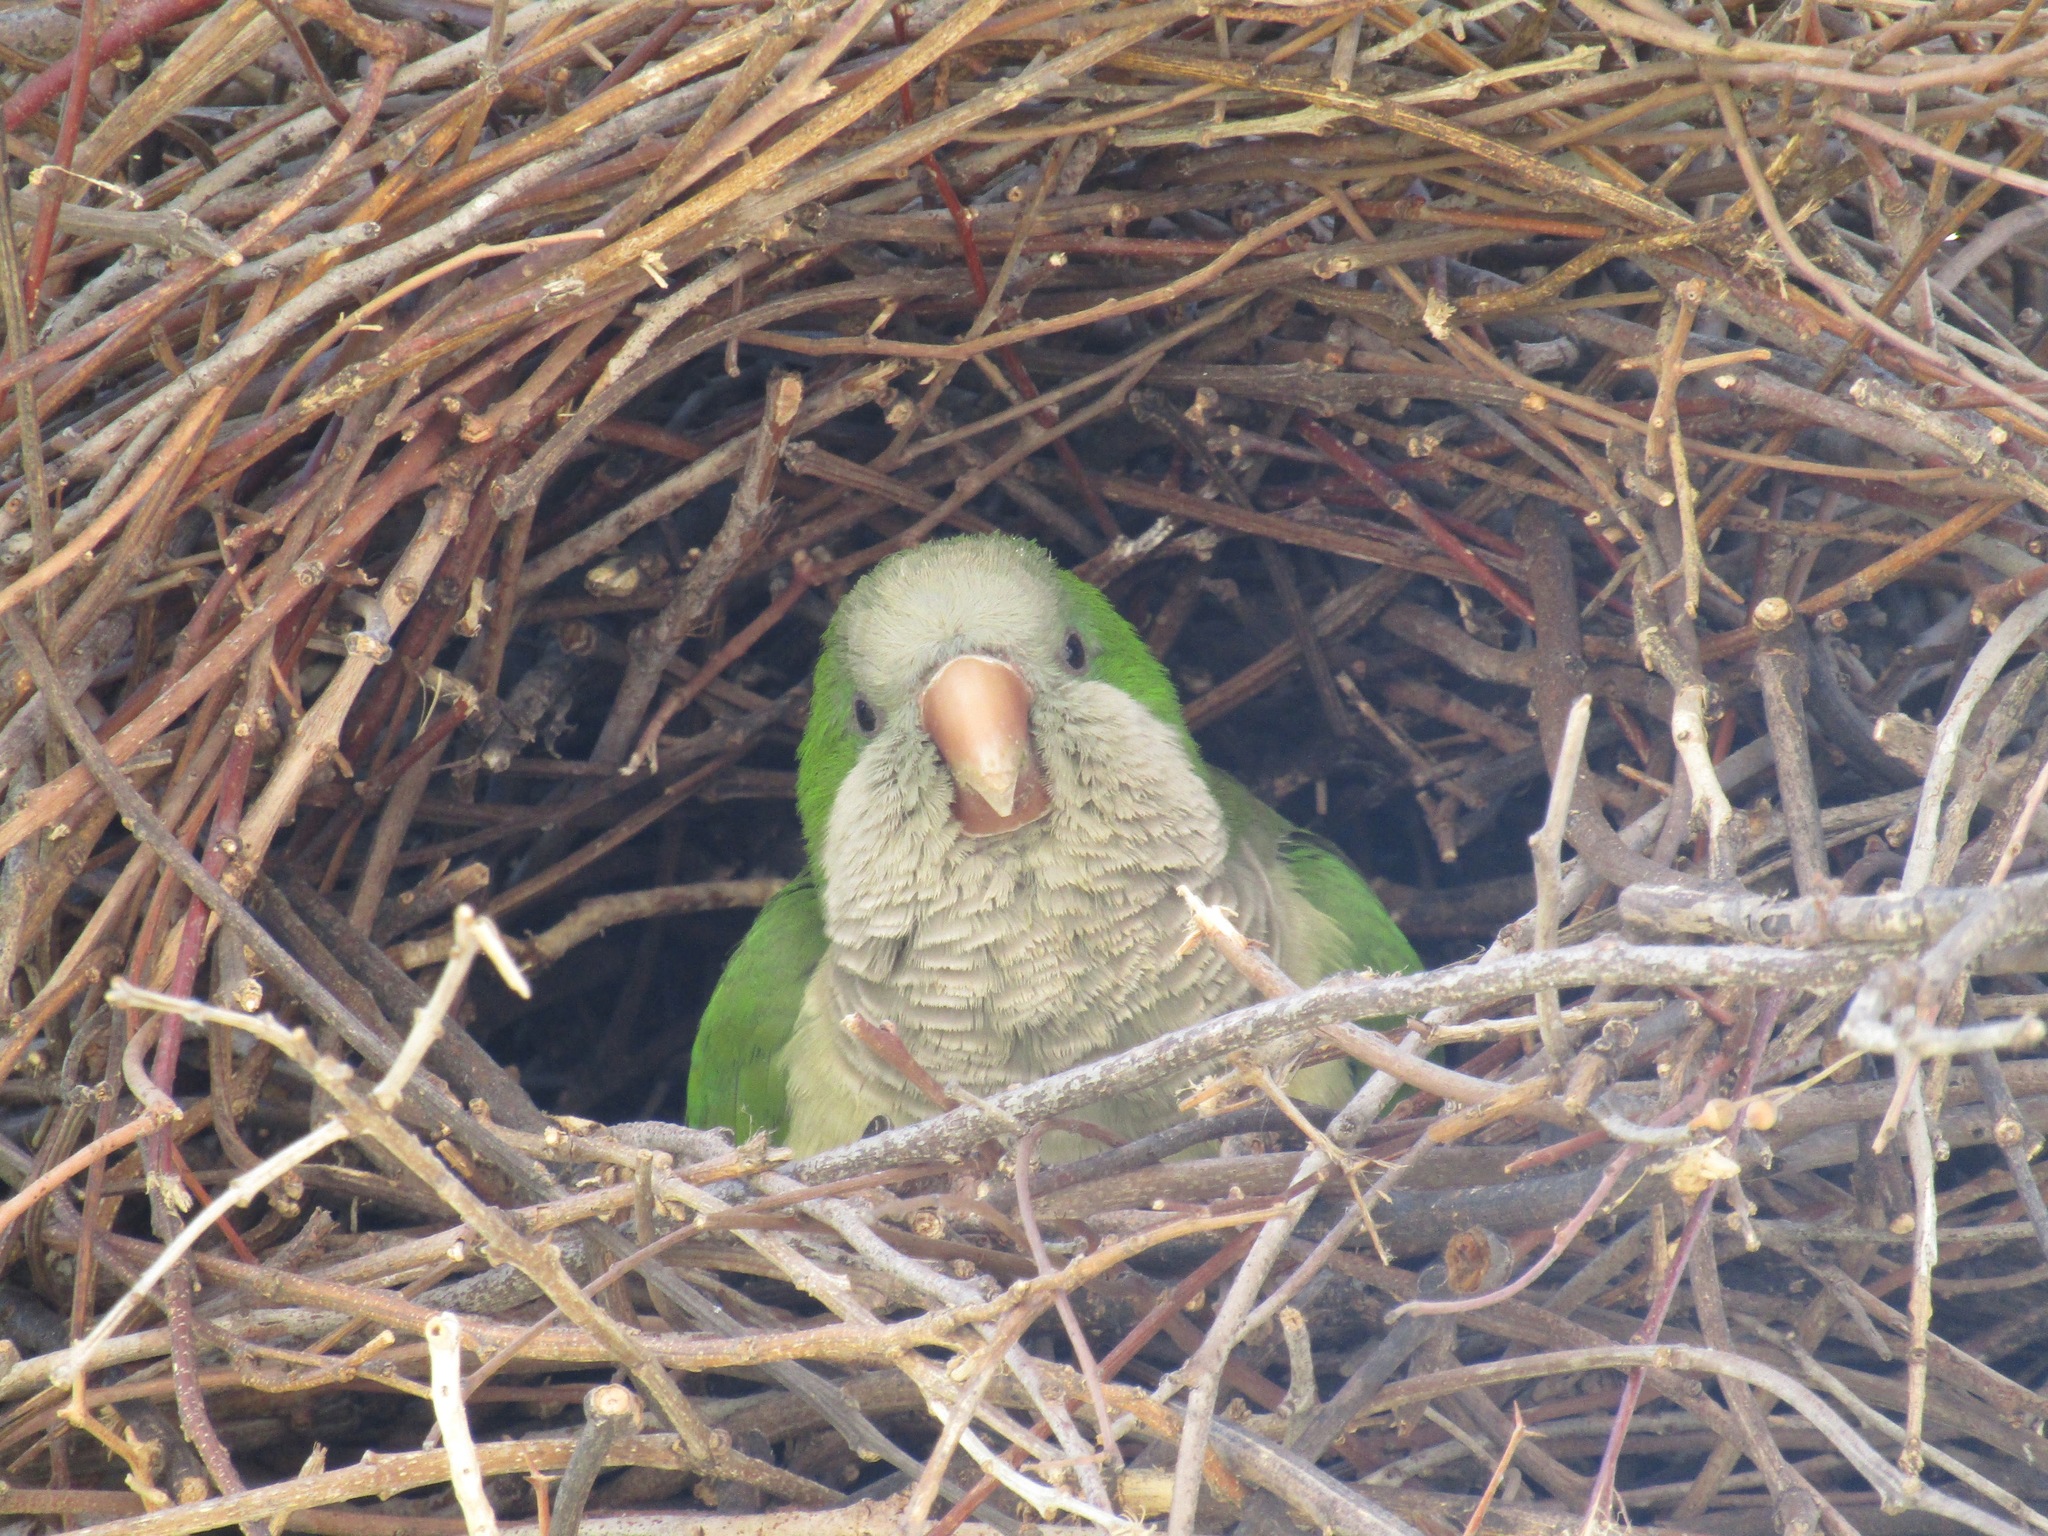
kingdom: Animalia
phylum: Chordata
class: Aves
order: Psittaciformes
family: Psittacidae
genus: Myiopsitta
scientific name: Myiopsitta monachus
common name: Monk parakeet
